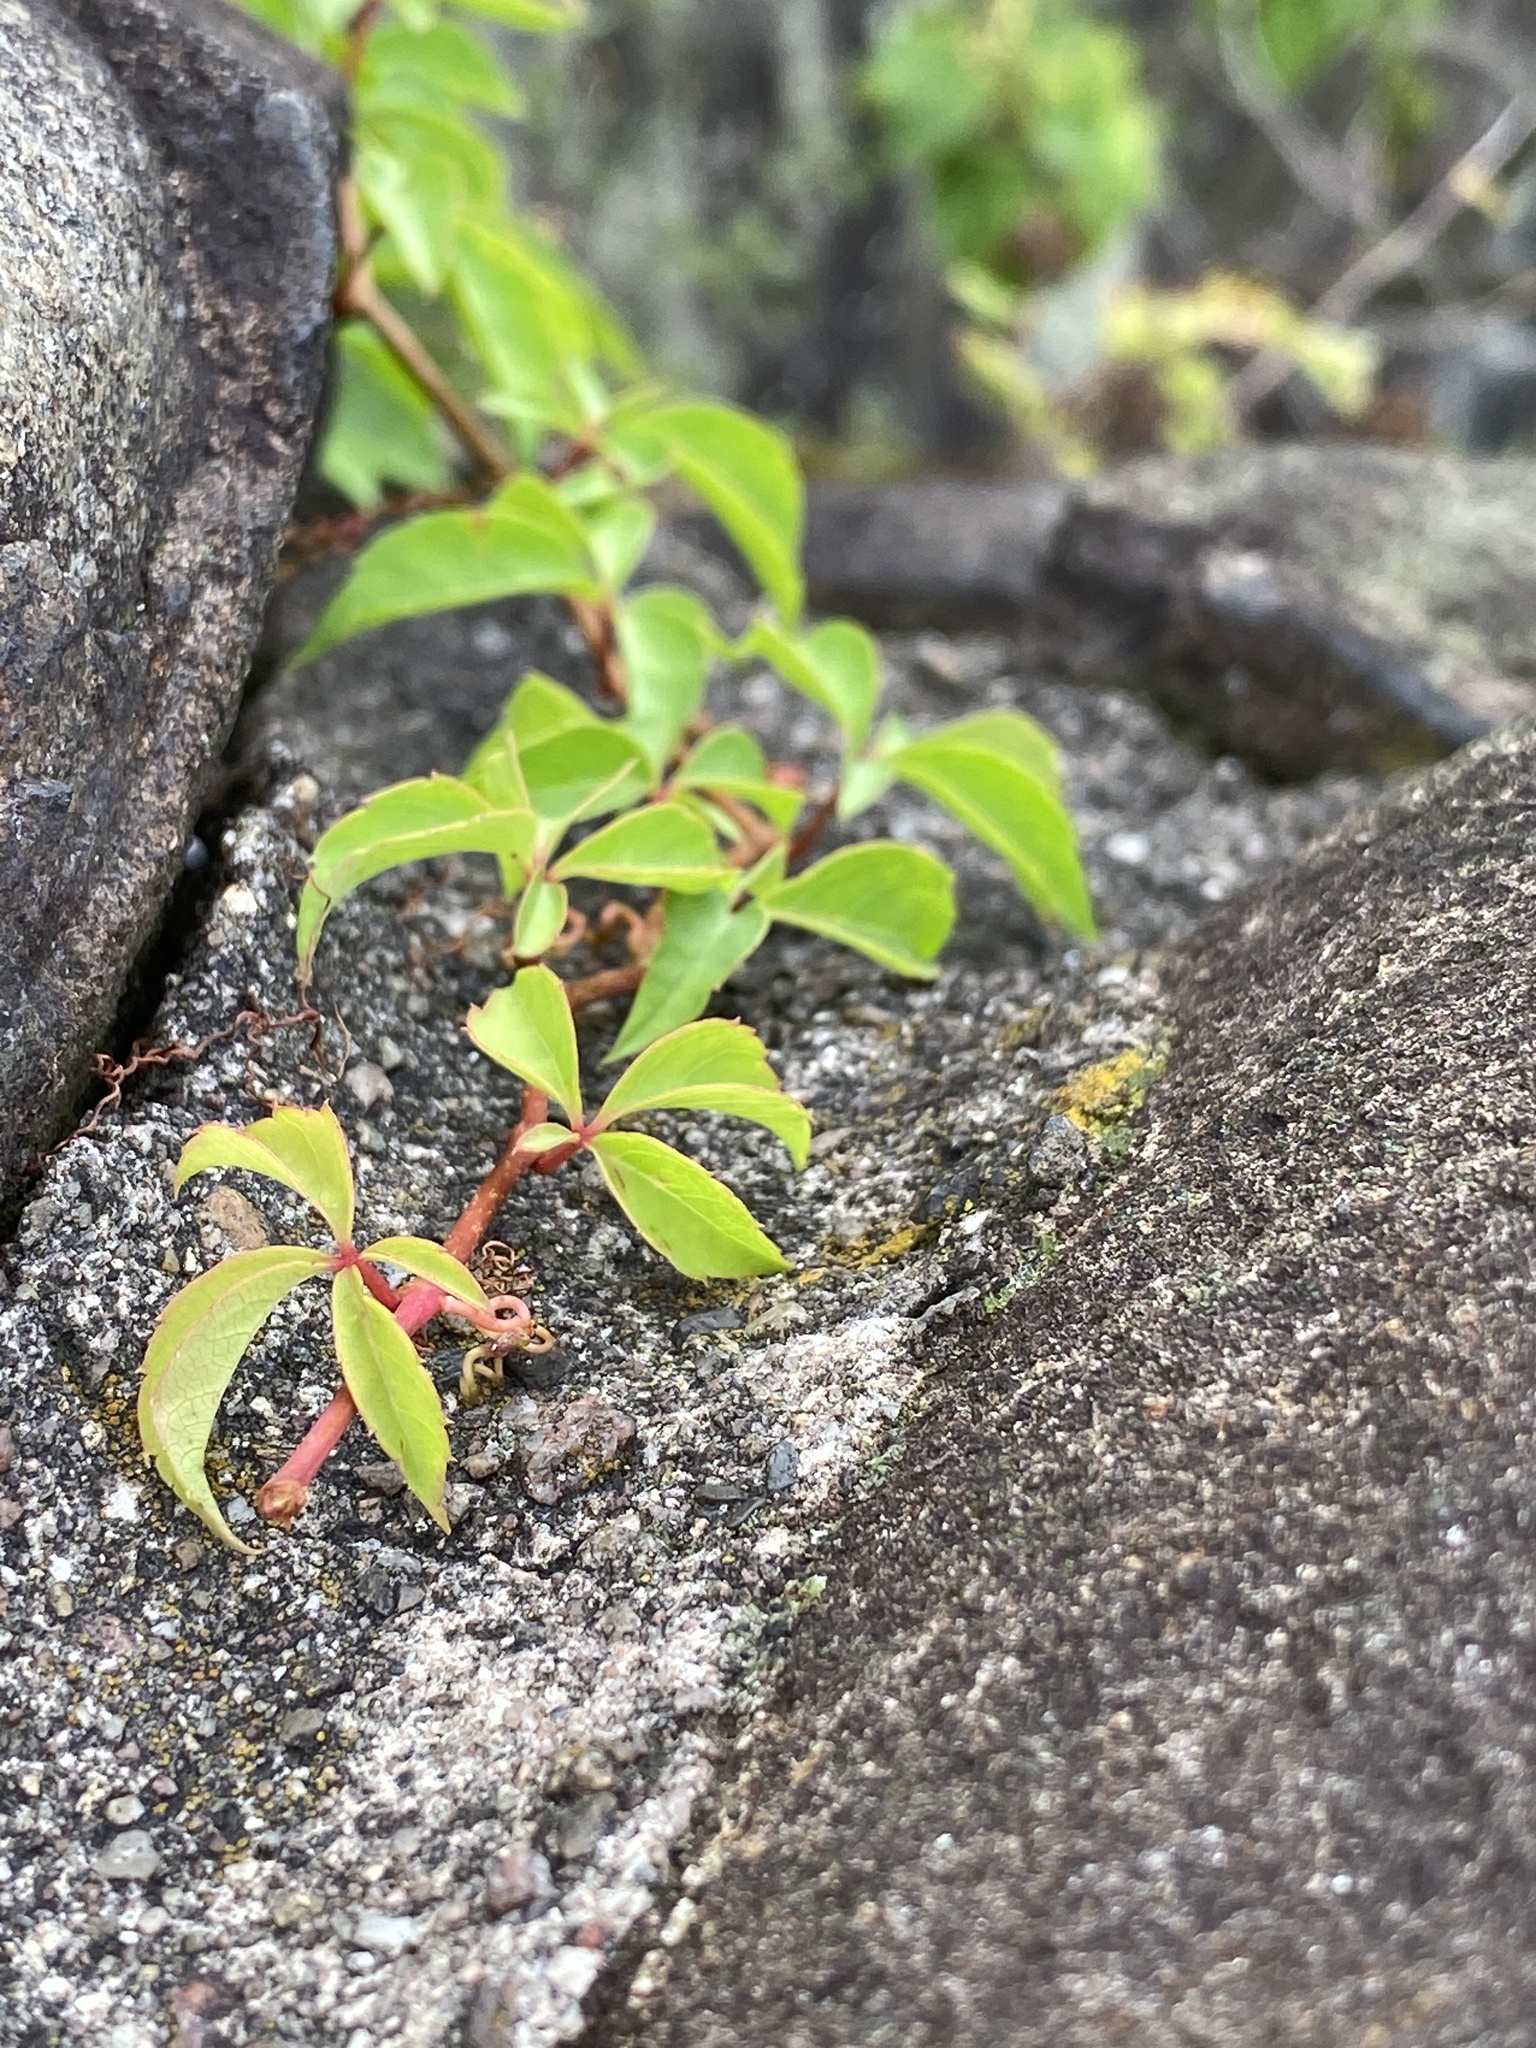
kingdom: Plantae
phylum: Tracheophyta
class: Magnoliopsida
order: Vitales
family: Vitaceae
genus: Parthenocissus
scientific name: Parthenocissus quinquefolia
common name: Virginia-creeper
